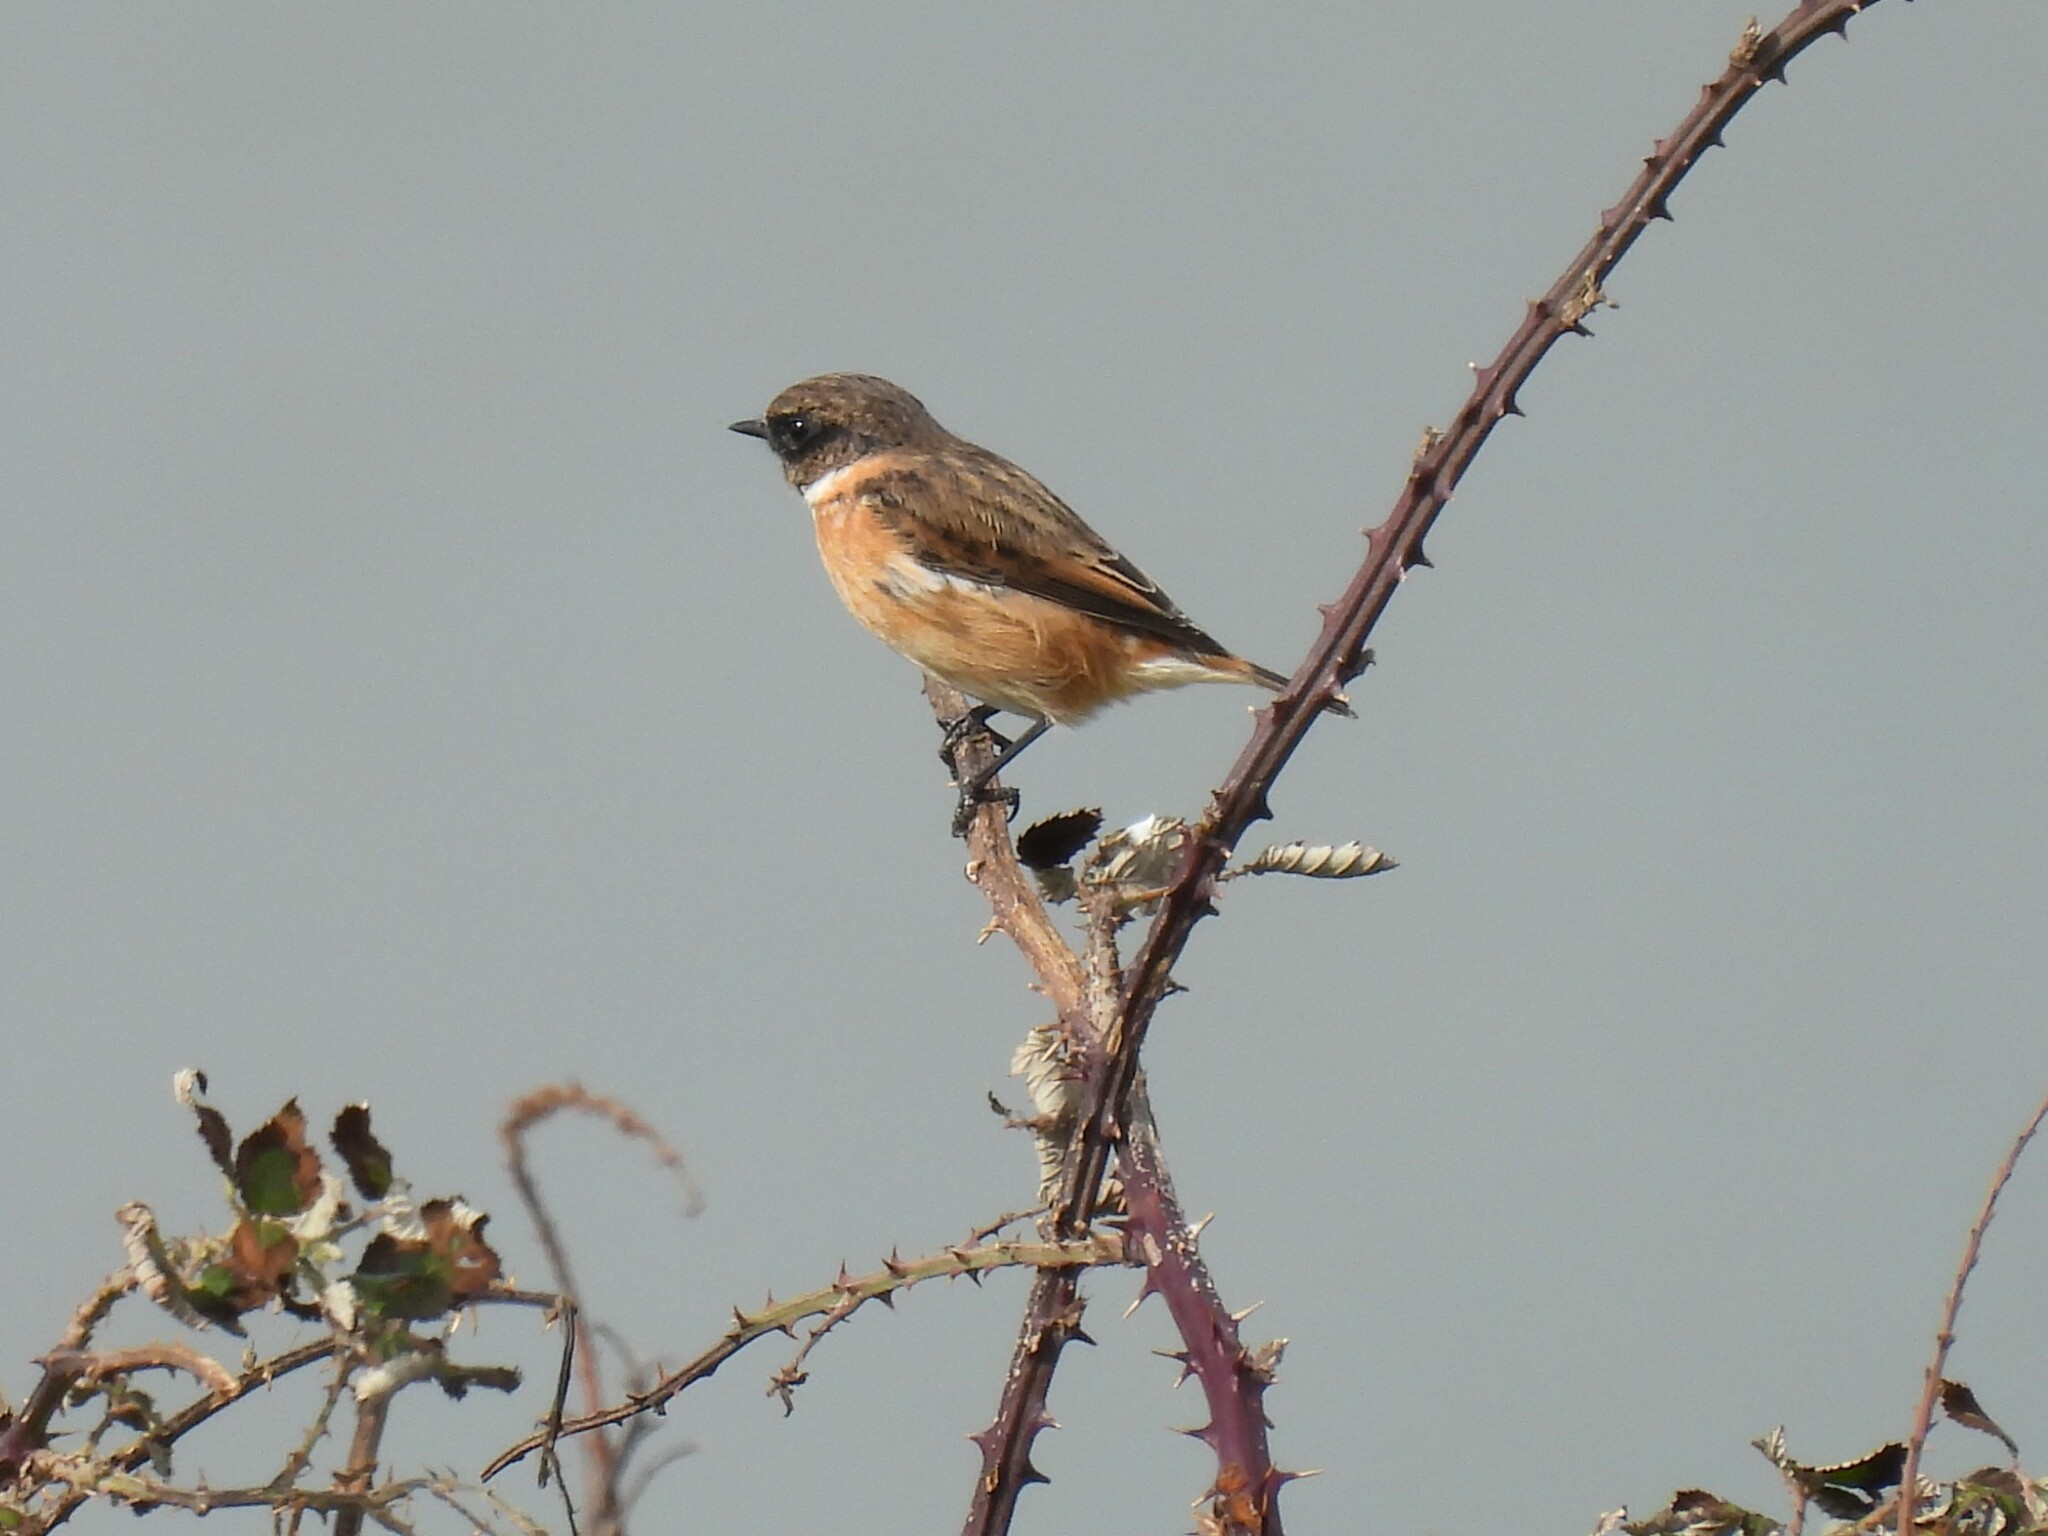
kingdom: Animalia
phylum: Chordata
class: Aves
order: Passeriformes
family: Muscicapidae
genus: Saxicola
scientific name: Saxicola rubicola
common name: European stonechat
